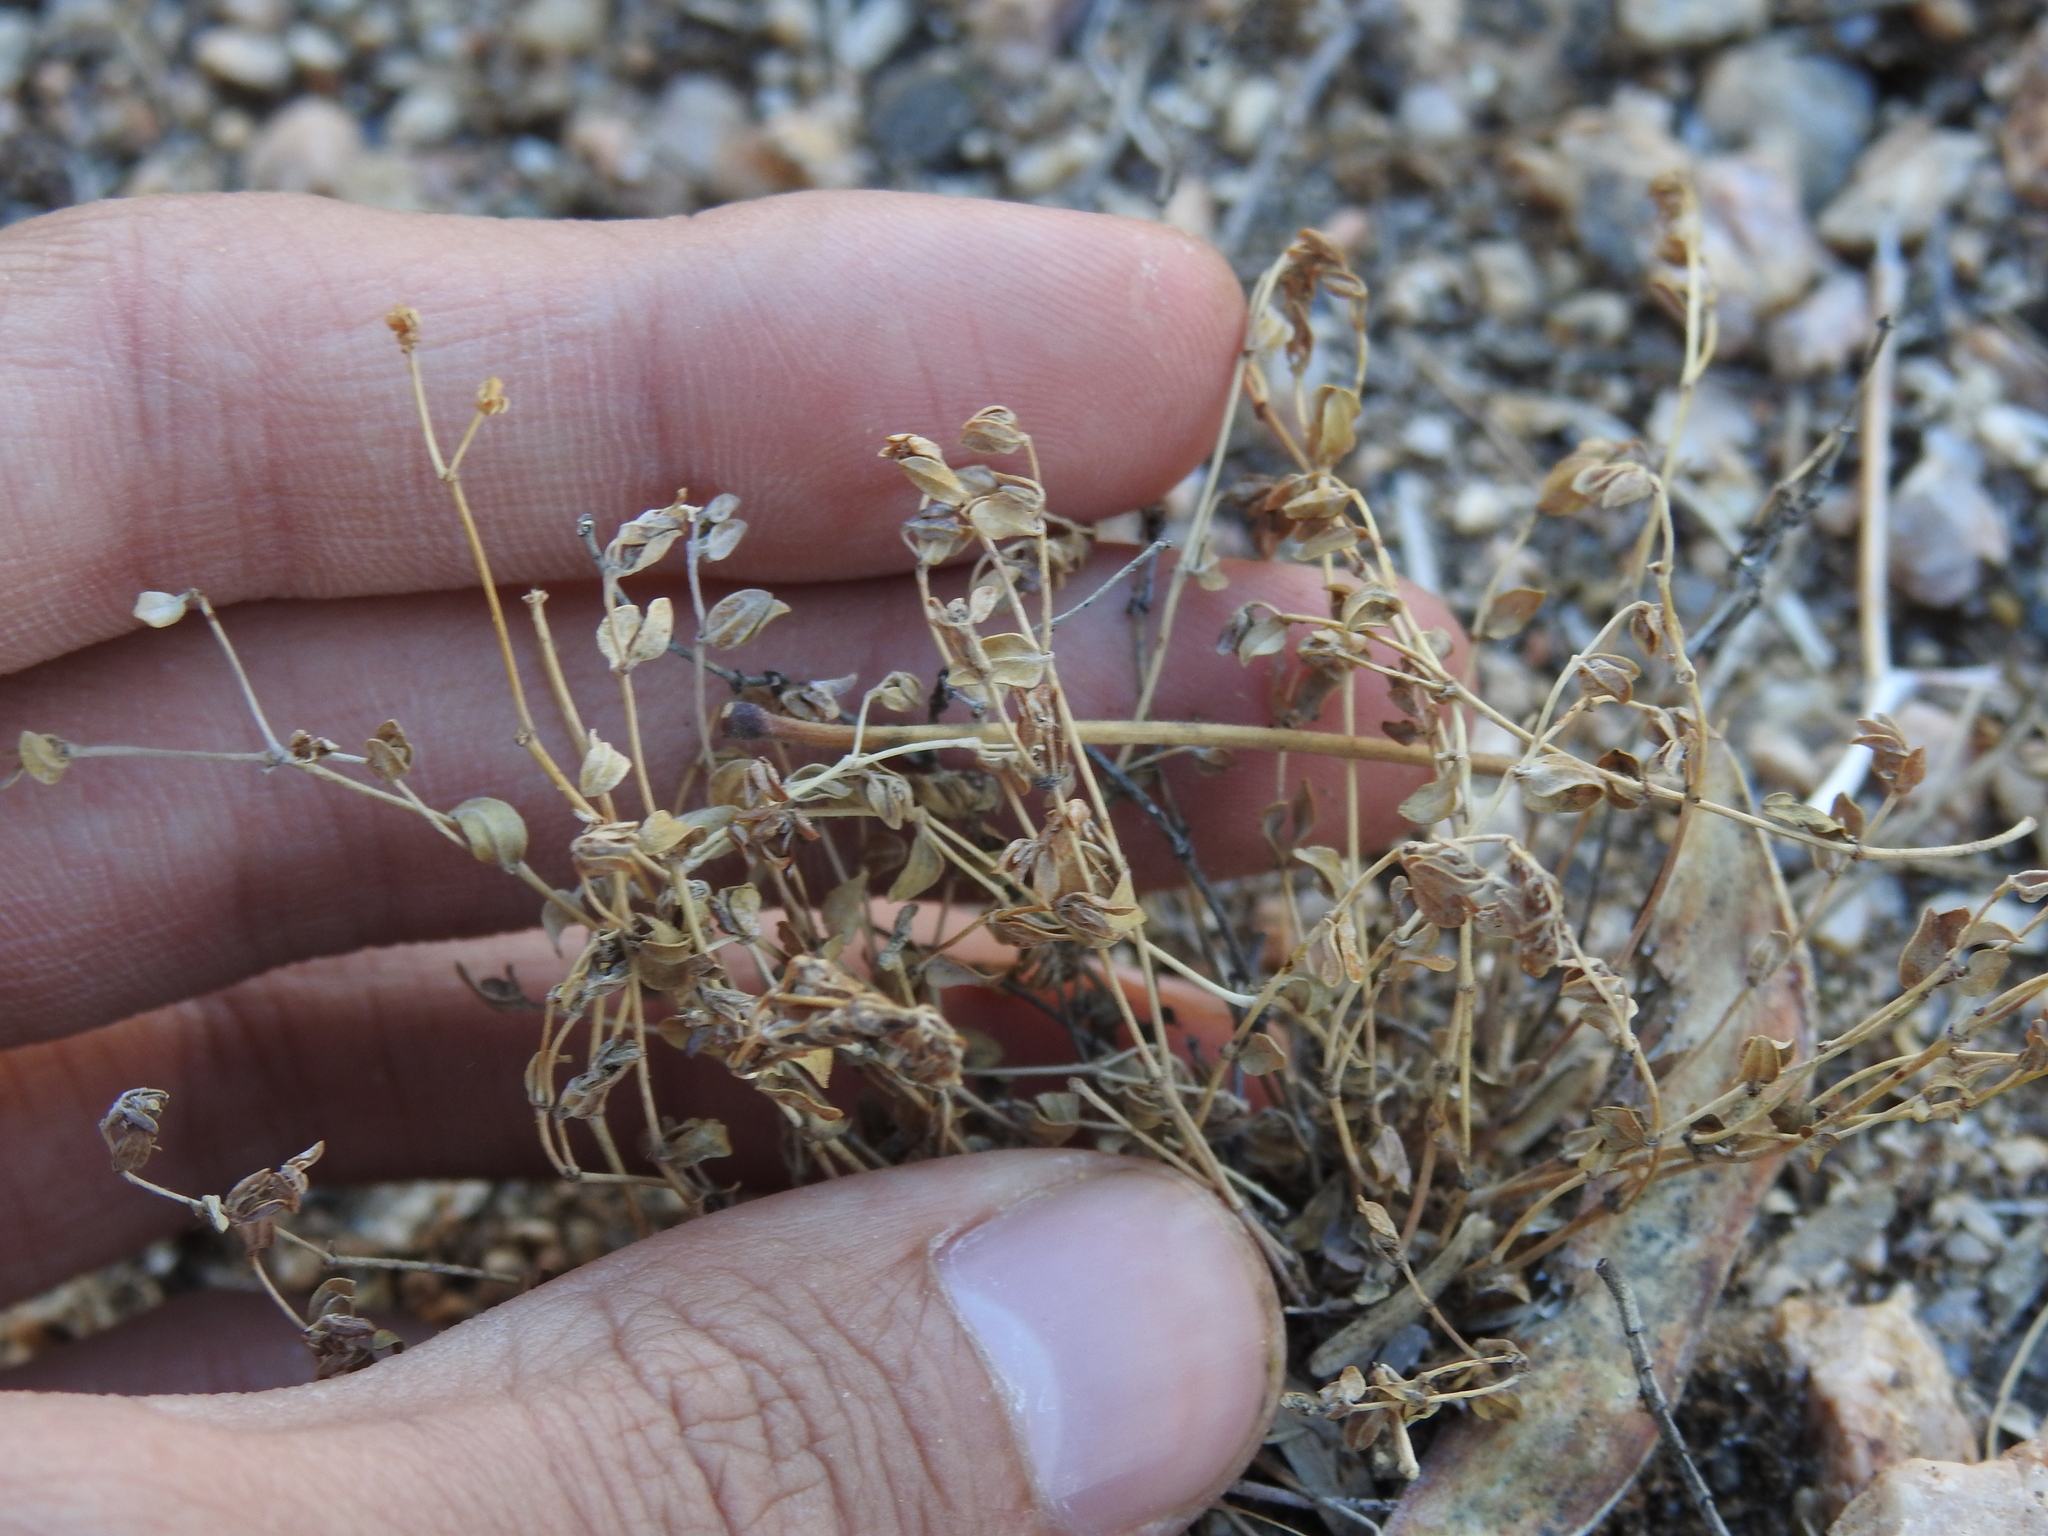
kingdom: Plantae
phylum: Tracheophyta
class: Magnoliopsida
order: Malpighiales
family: Euphorbiaceae
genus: Euphorbia
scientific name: Euphorbia polycarpa
